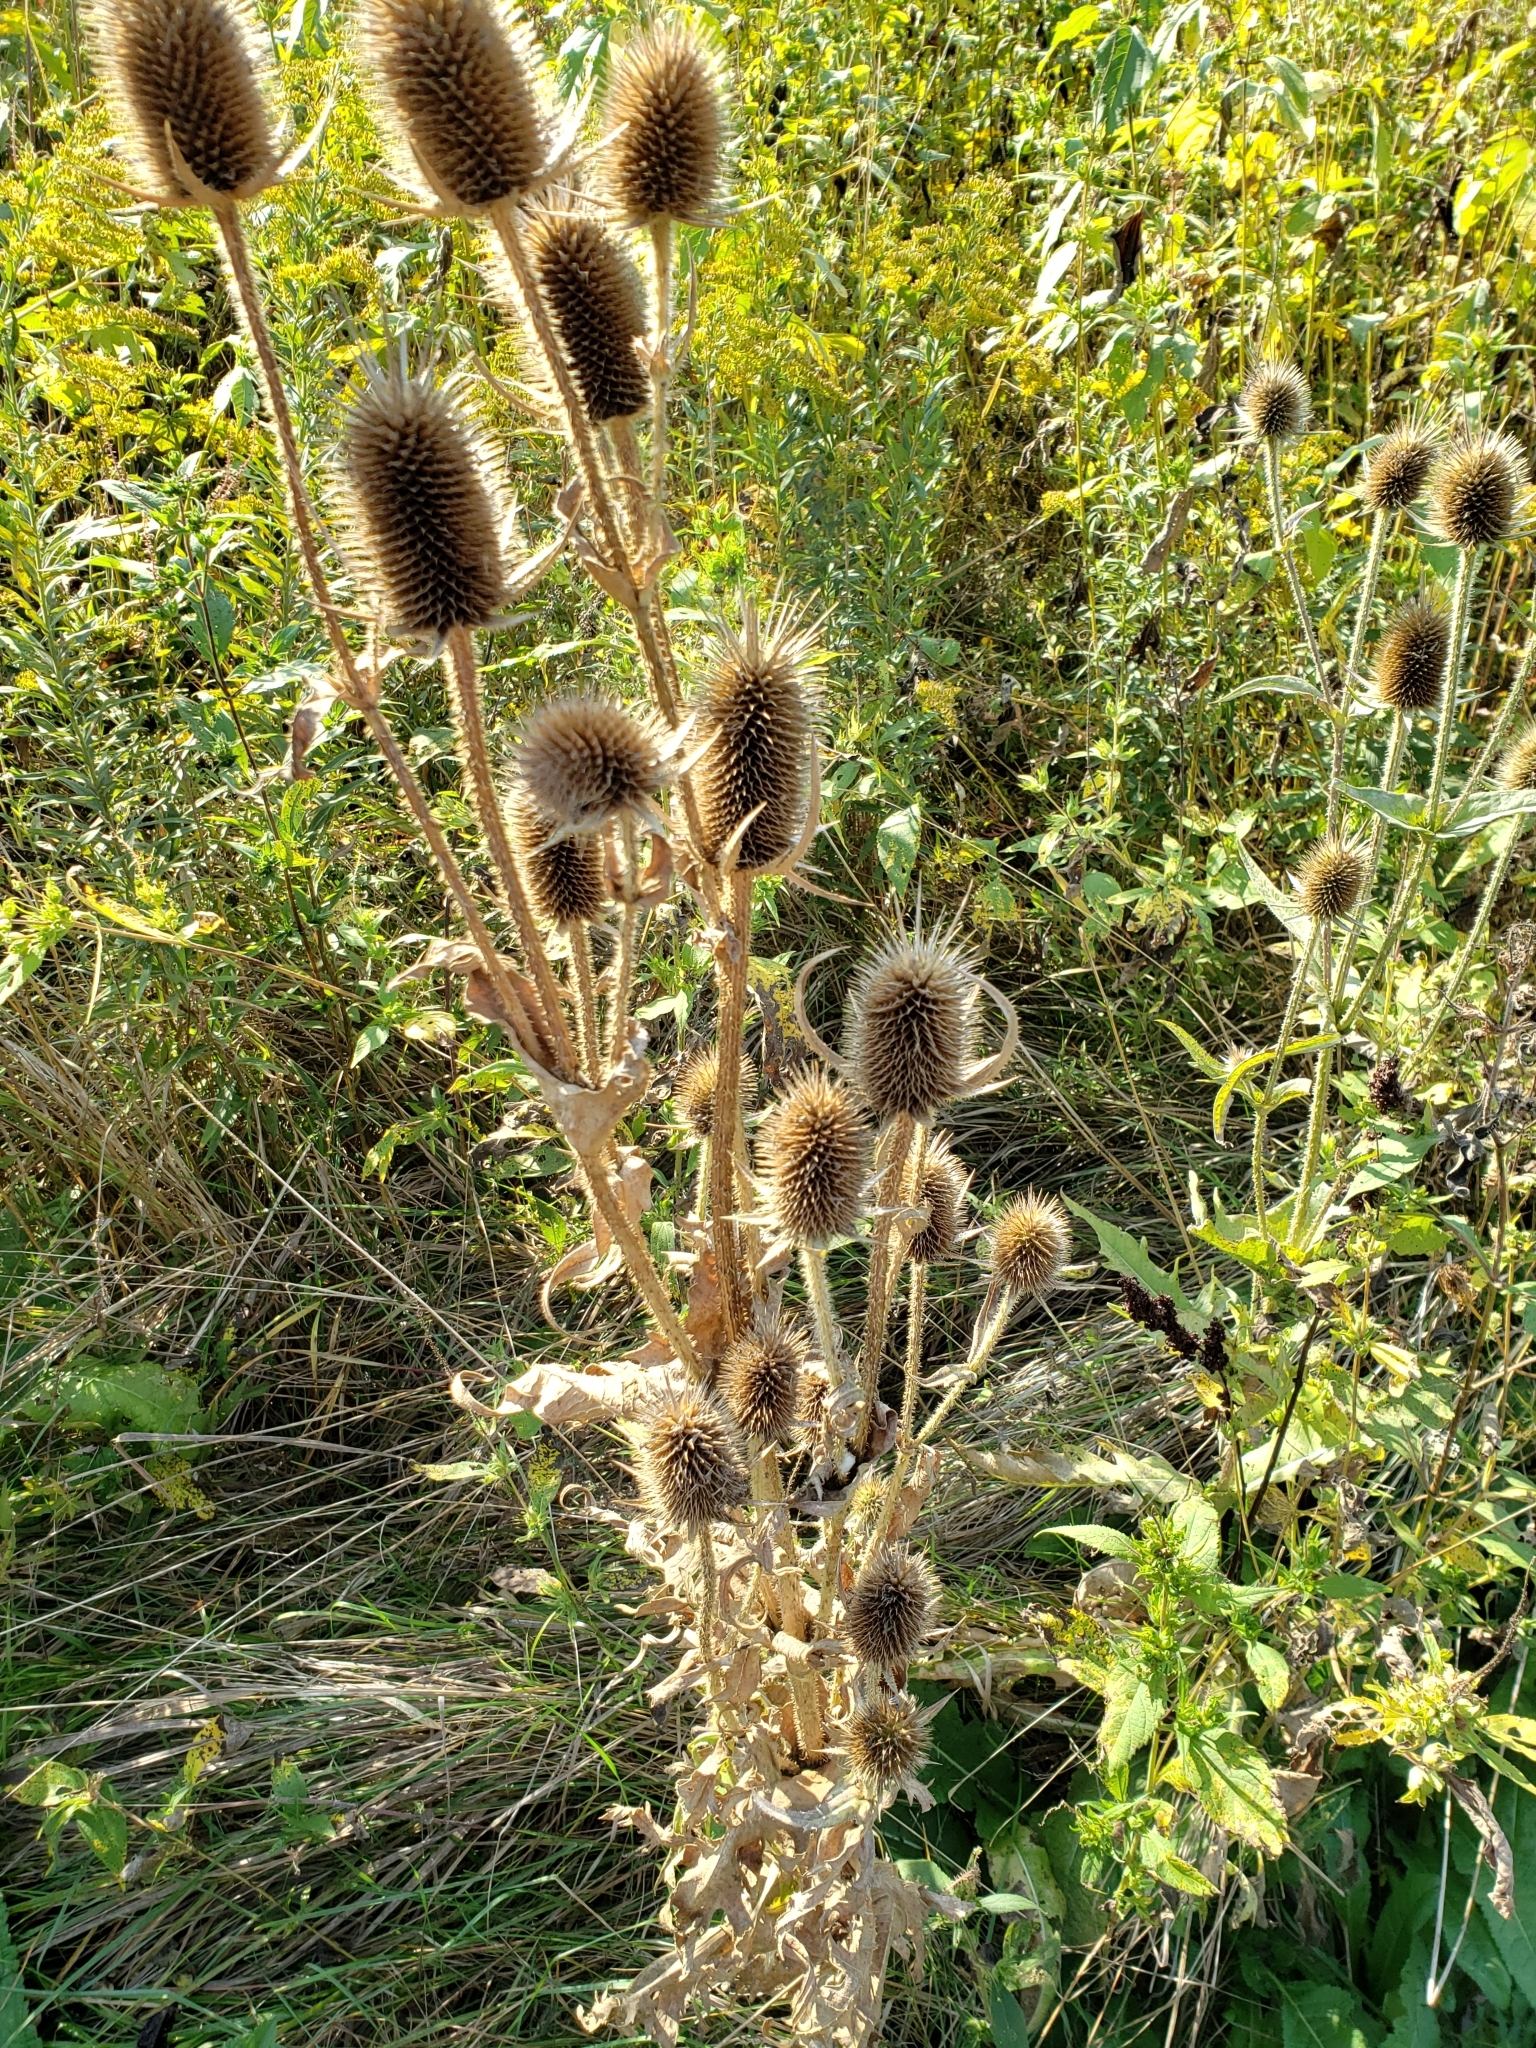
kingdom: Plantae
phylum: Tracheophyta
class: Magnoliopsida
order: Dipsacales
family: Caprifoliaceae
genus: Dipsacus
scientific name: Dipsacus laciniatus
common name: Cut-leaved teasel
